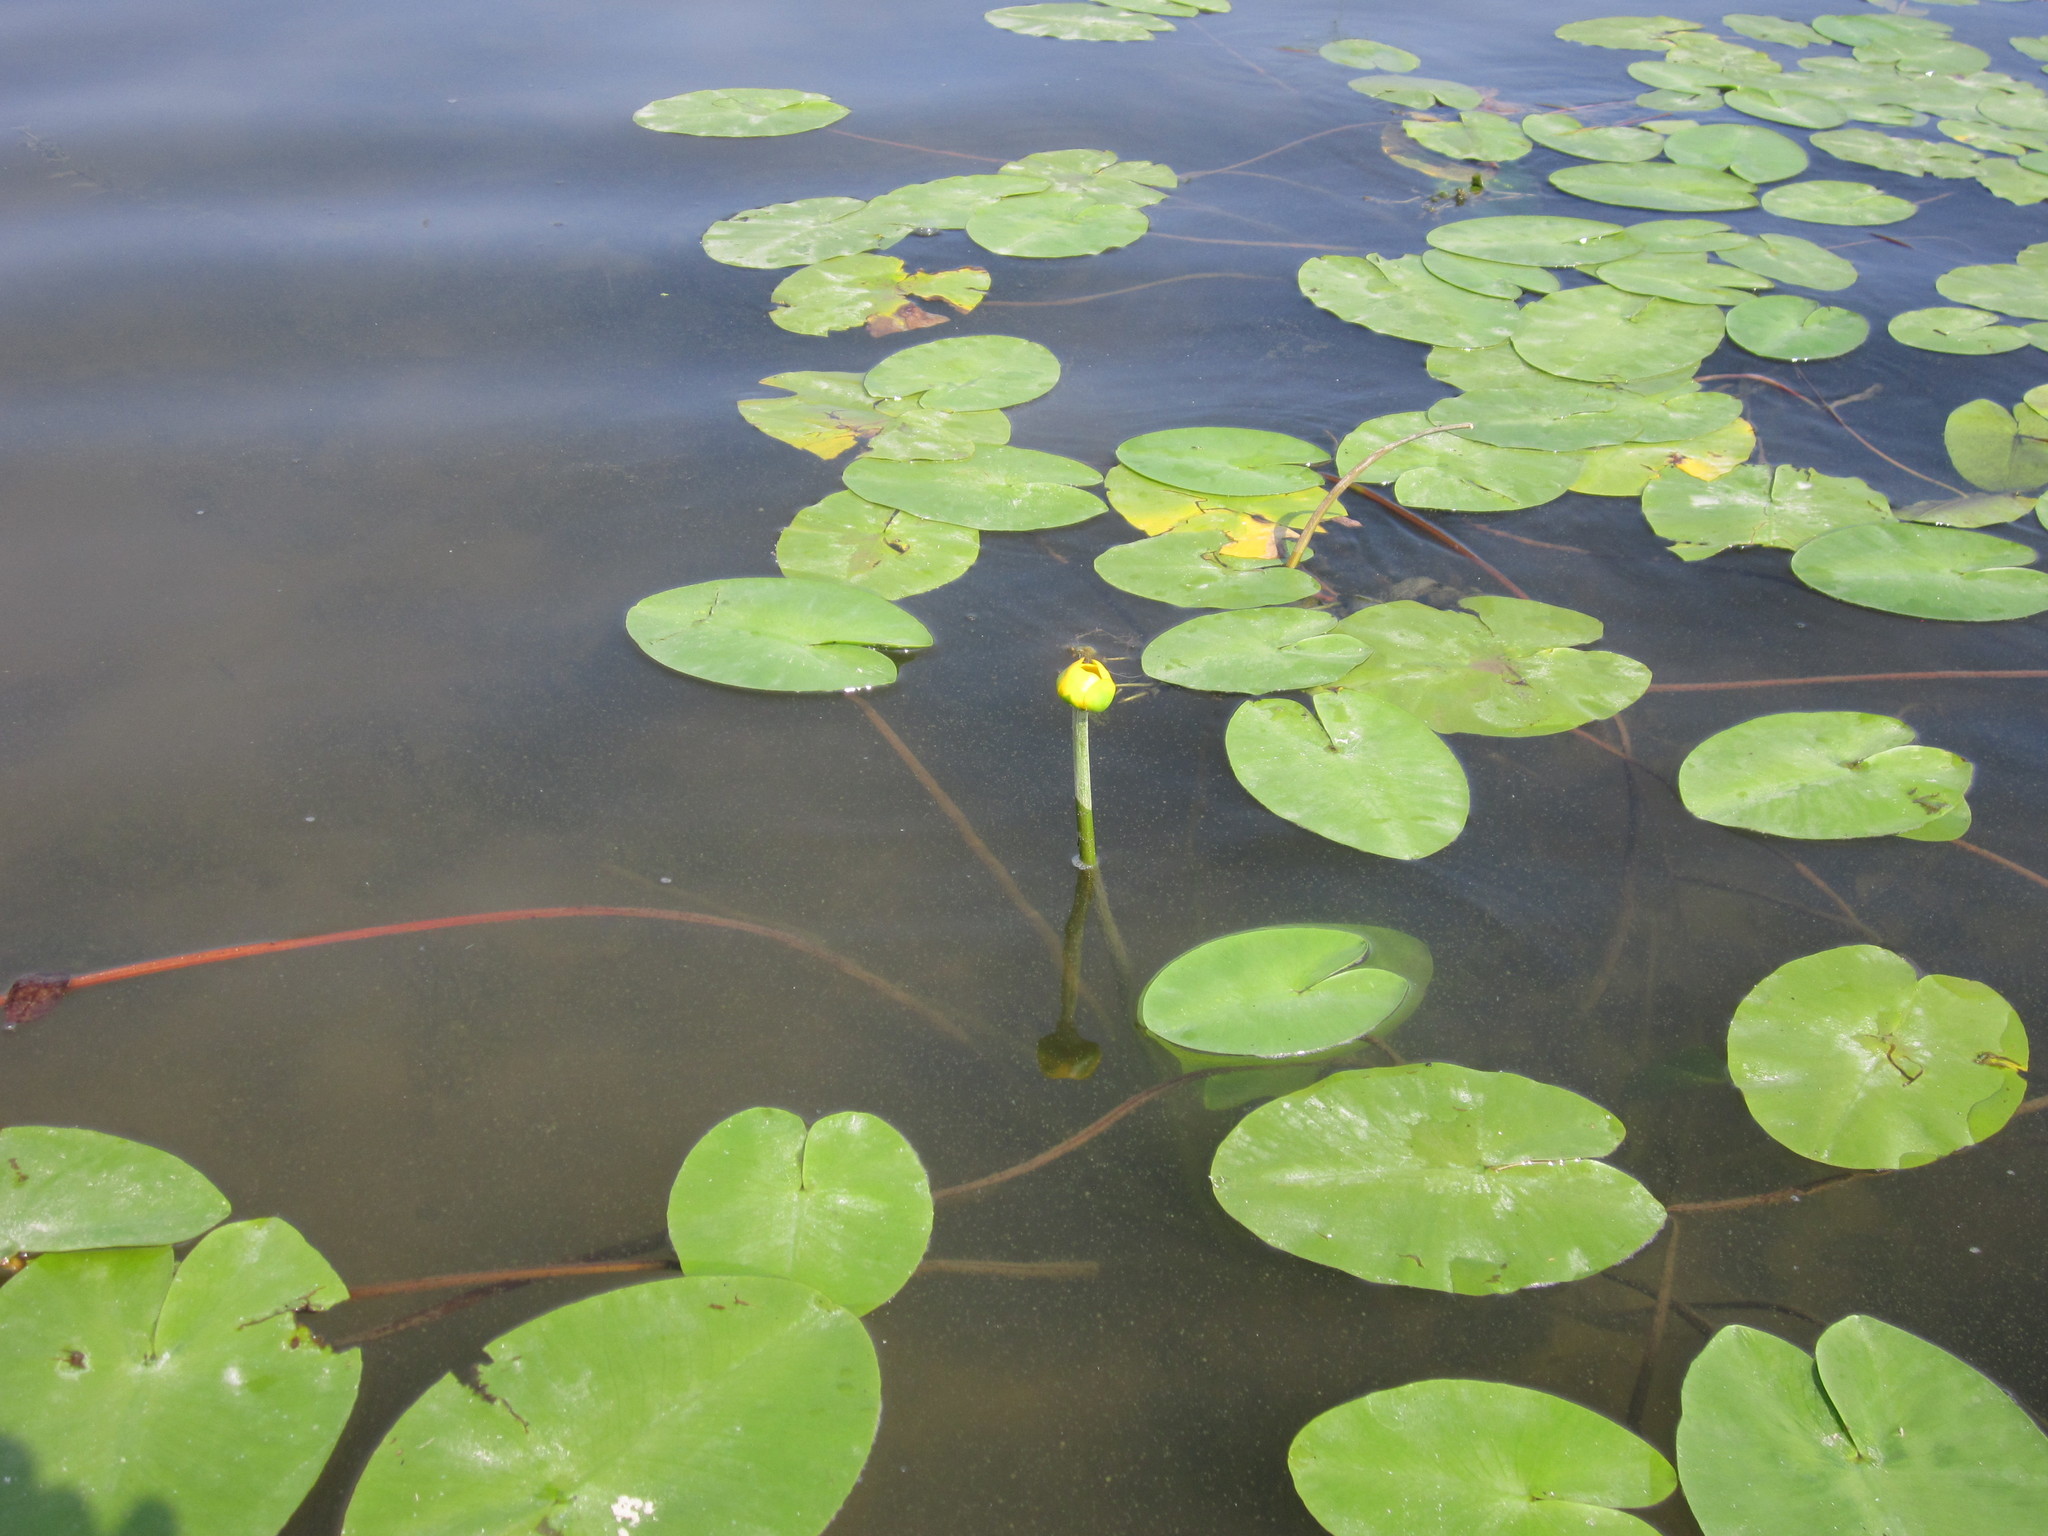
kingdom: Plantae
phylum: Tracheophyta
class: Magnoliopsida
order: Nymphaeales
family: Nymphaeaceae
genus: Nuphar
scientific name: Nuphar lutea
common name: Yellow water-lily
